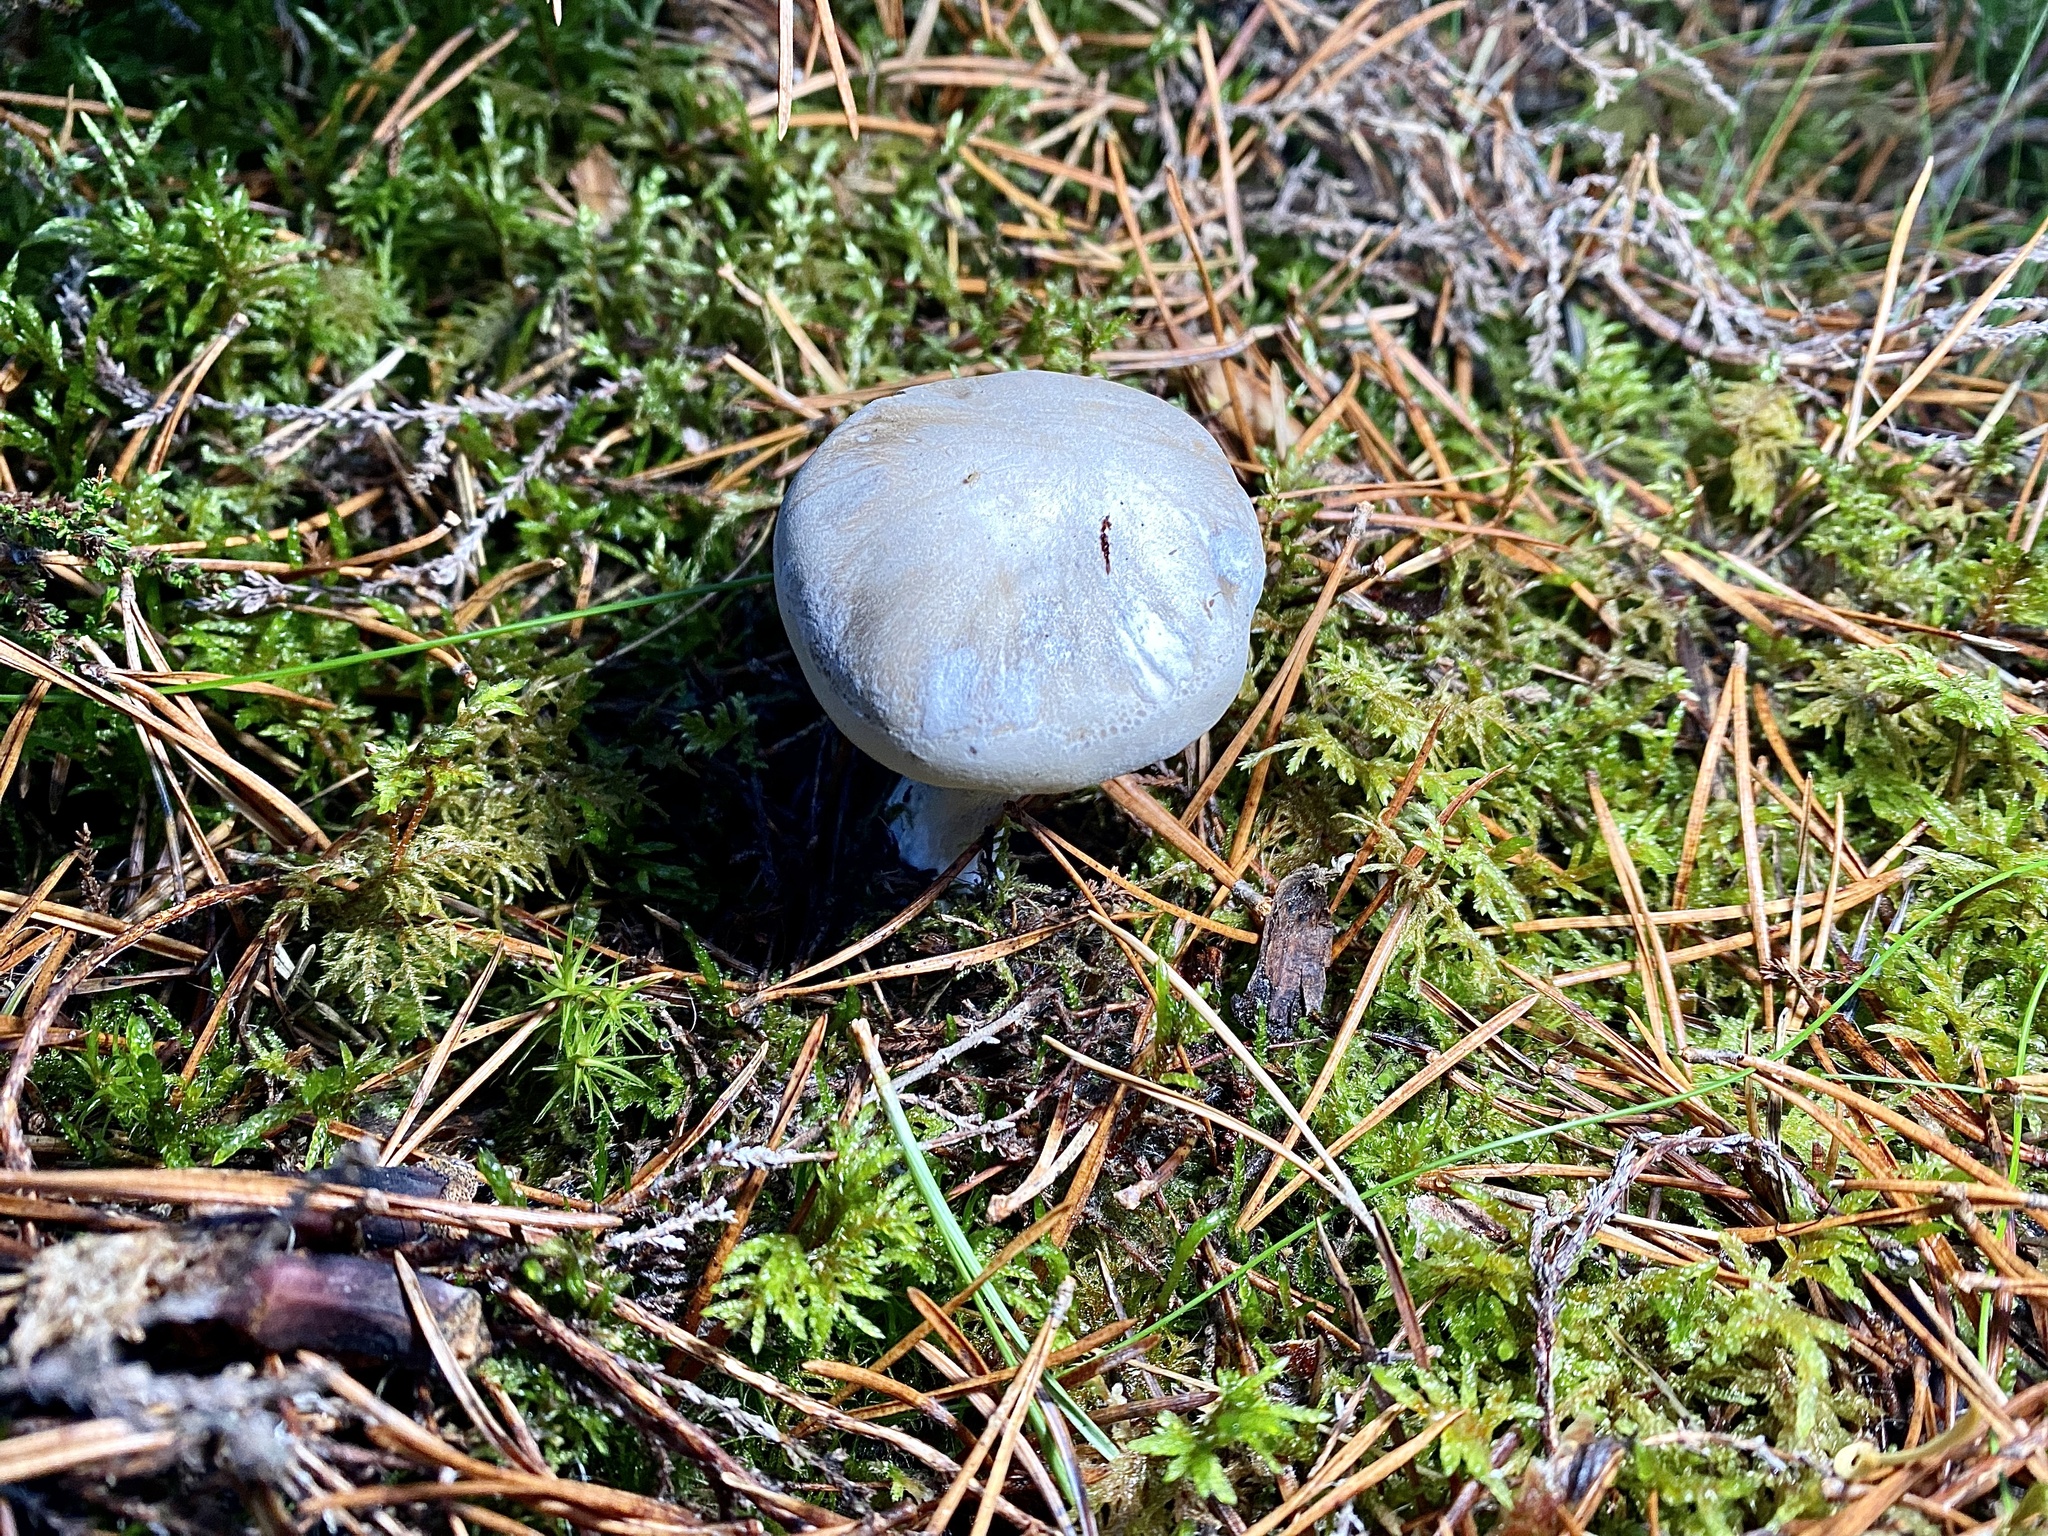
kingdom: Fungi
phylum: Basidiomycota
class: Agaricomycetes
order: Agaricales
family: Entolomataceae
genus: Clitopilus
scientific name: Clitopilus prunulus
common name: The miller
